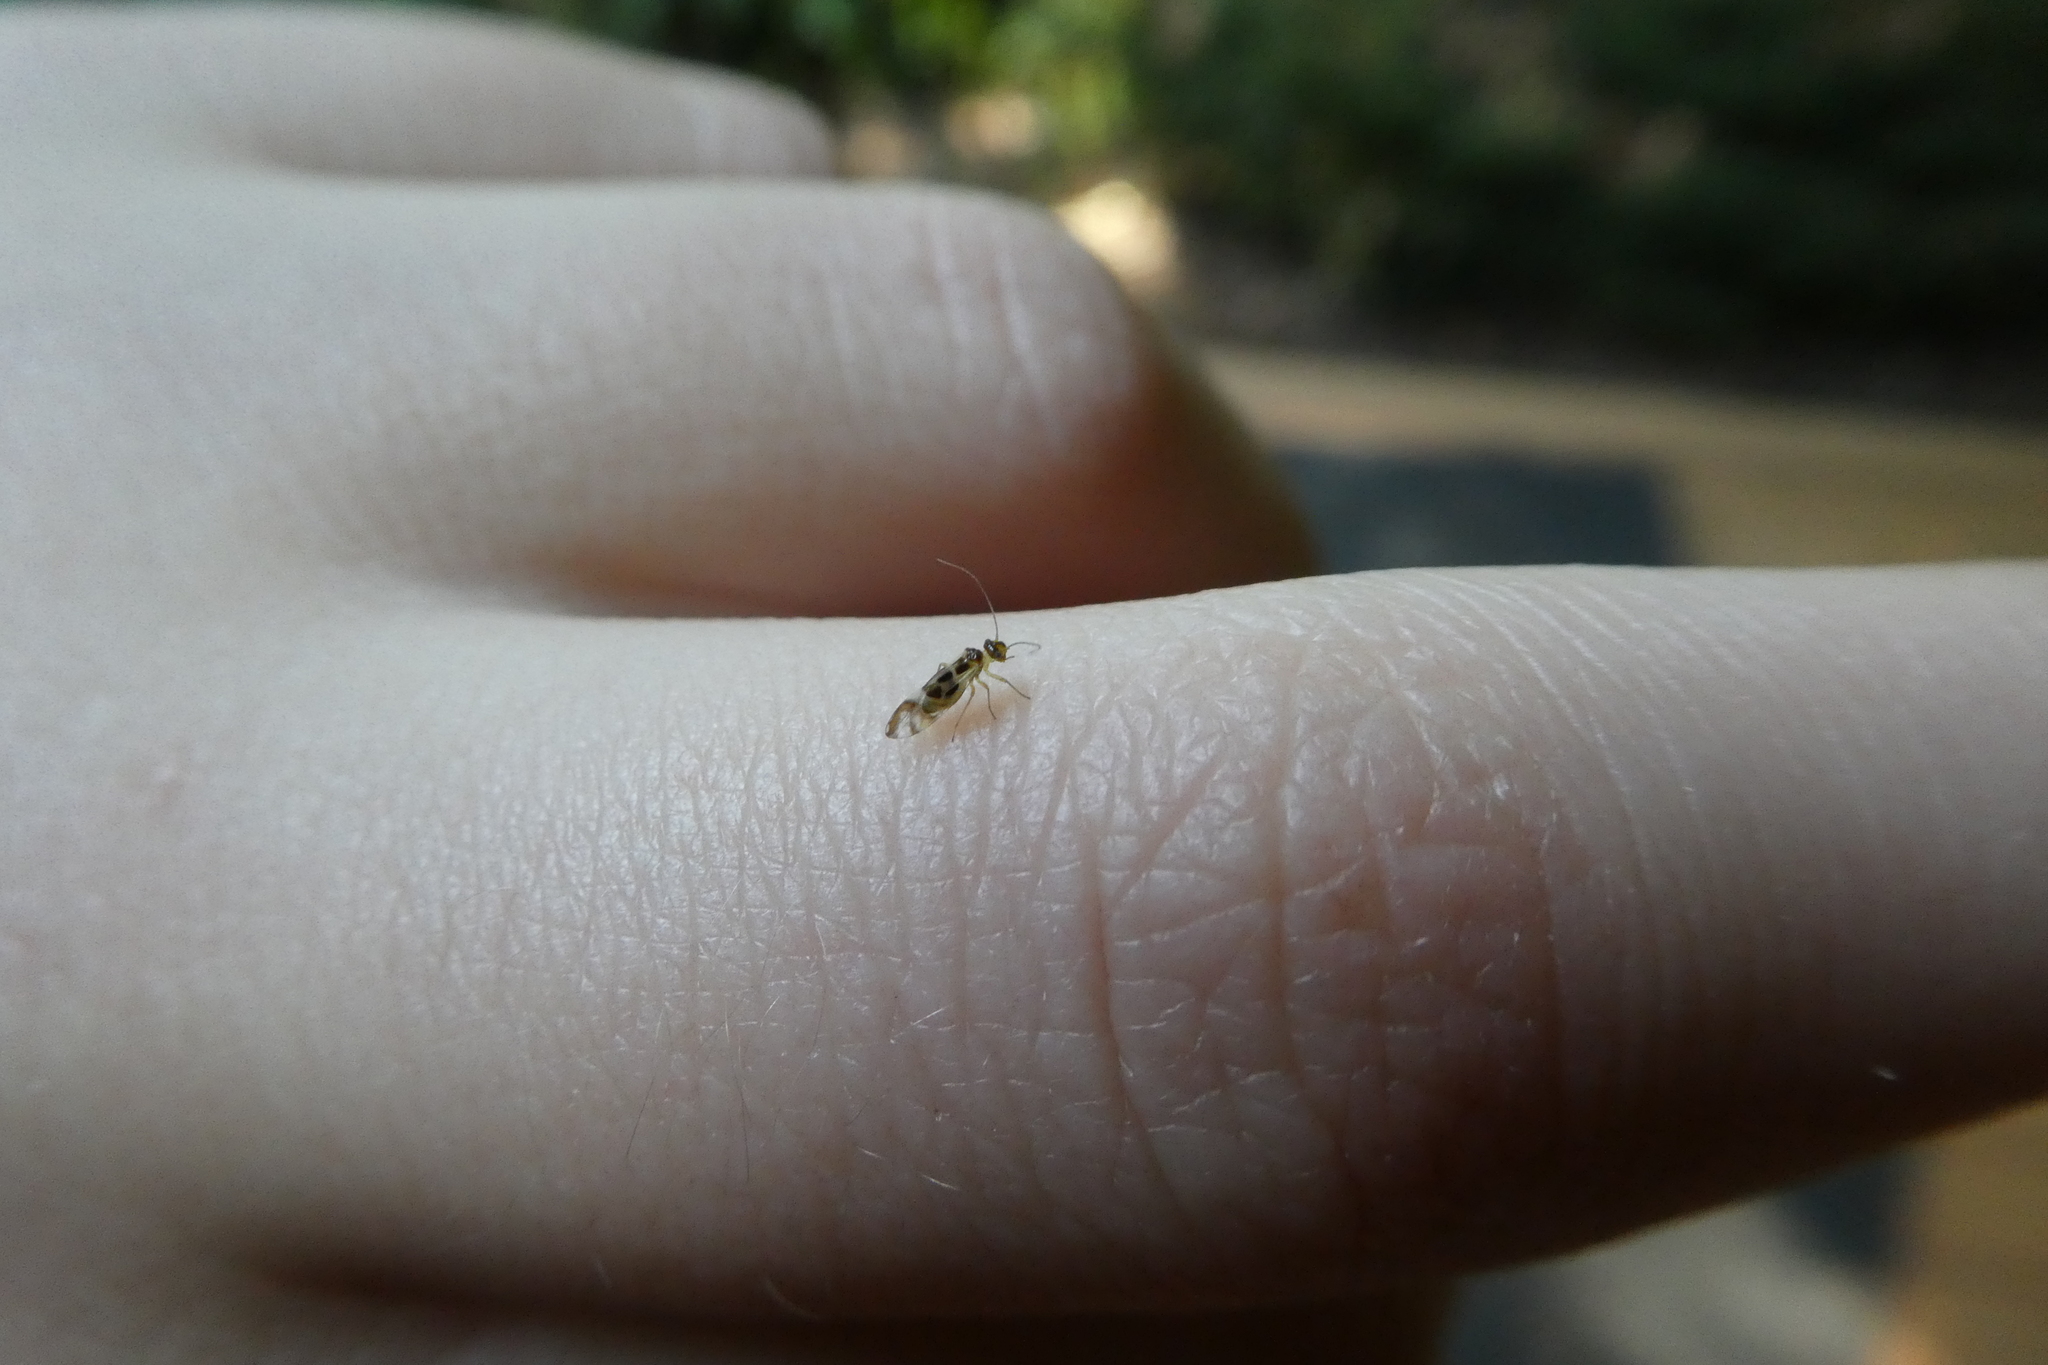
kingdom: Animalia
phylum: Arthropoda
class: Insecta
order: Psocodea
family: Stenopsocidae
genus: Graphopsocus
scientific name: Graphopsocus cruciatus
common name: Lizard bark louse
